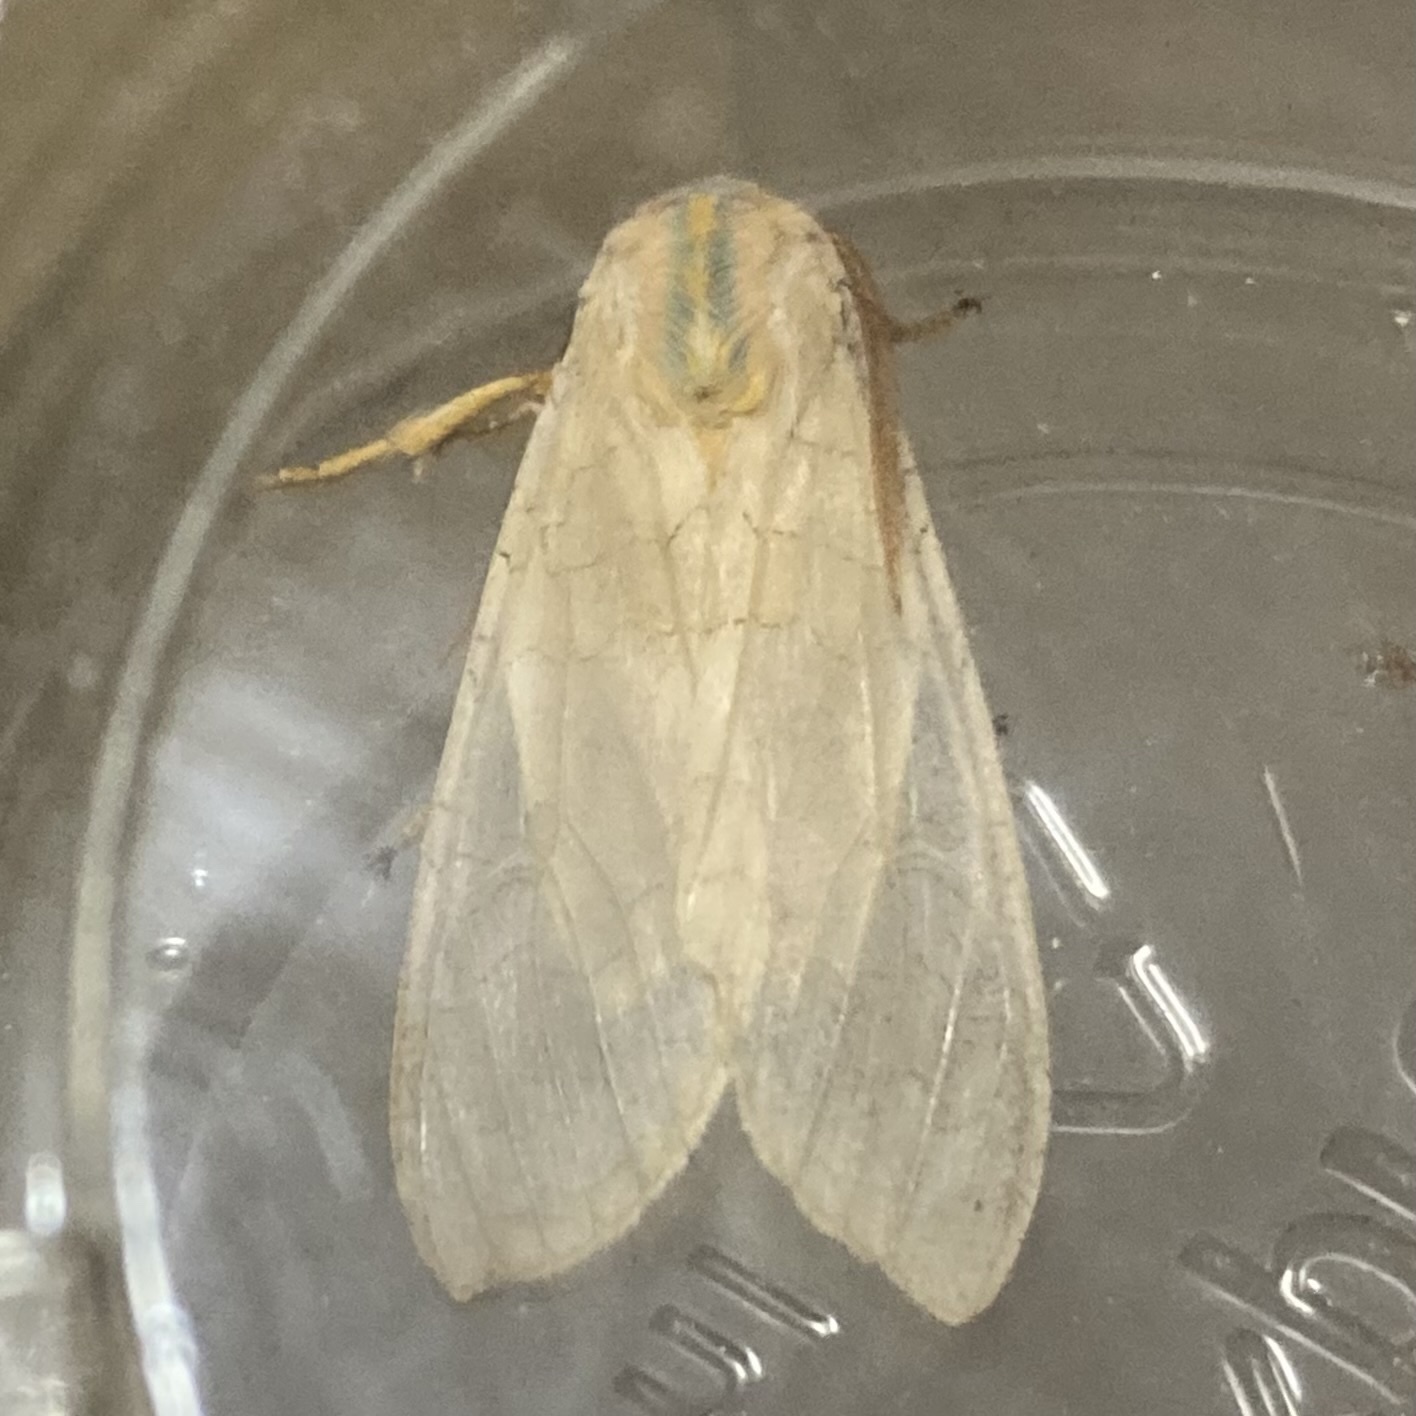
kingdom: Animalia
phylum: Arthropoda
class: Insecta
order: Lepidoptera
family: Erebidae
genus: Halysidota
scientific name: Halysidota tessellaris
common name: Banded tussock moth
